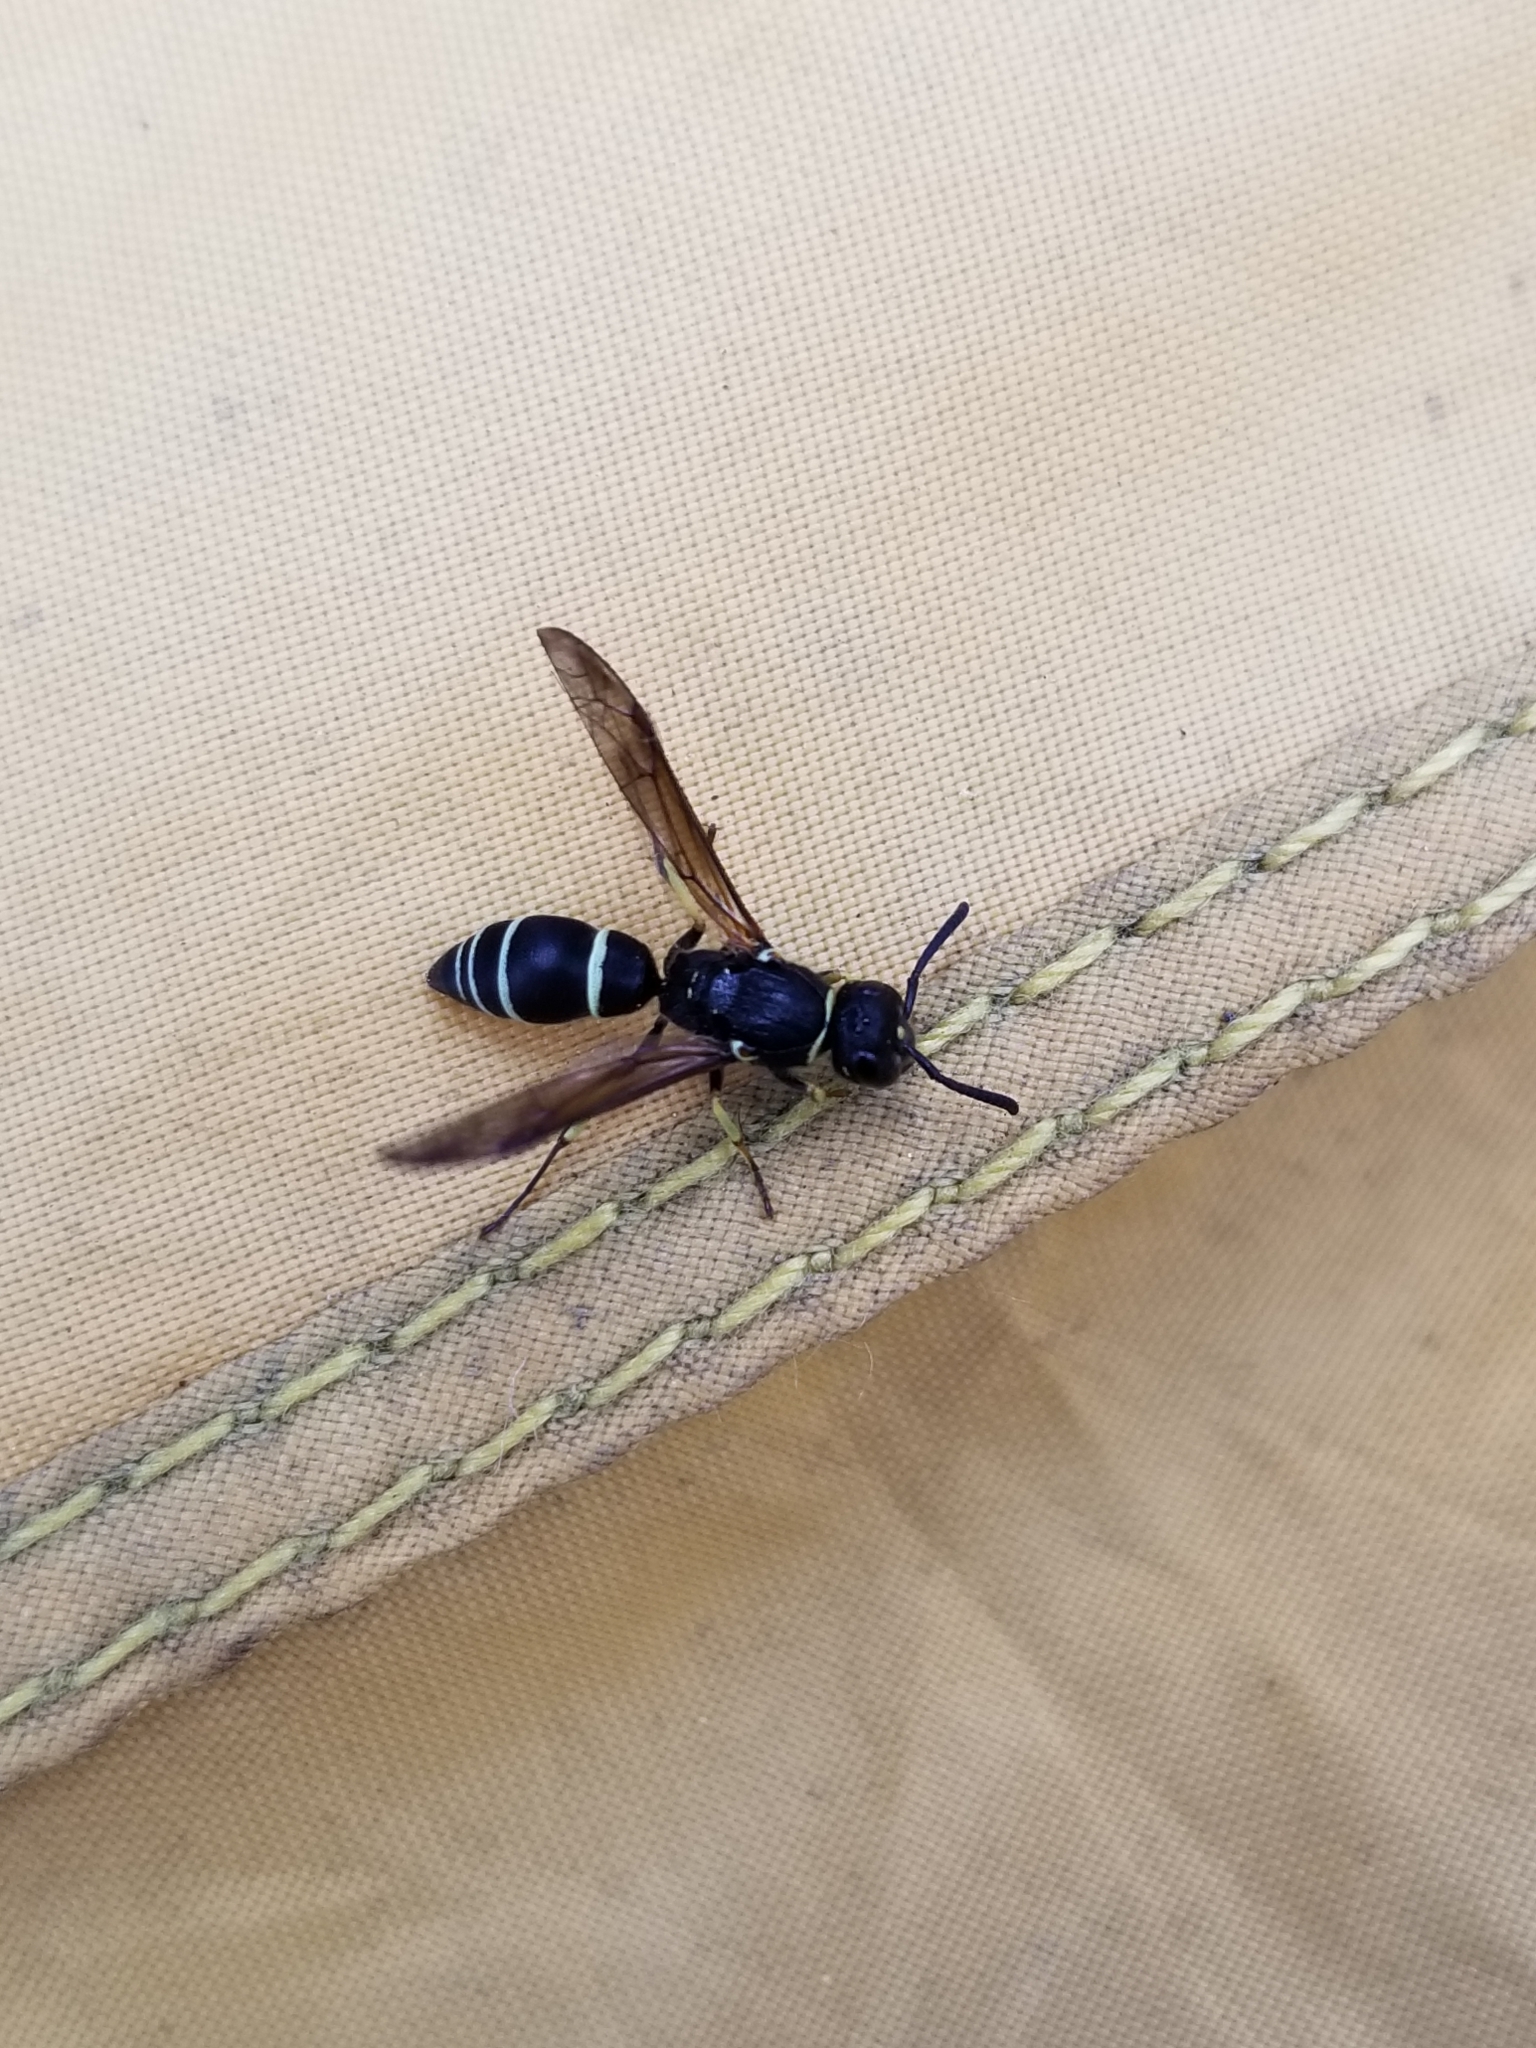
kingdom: Animalia
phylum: Arthropoda
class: Insecta
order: Hymenoptera
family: Vespidae
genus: Ancistrocerus
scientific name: Ancistrocerus albolacteus
